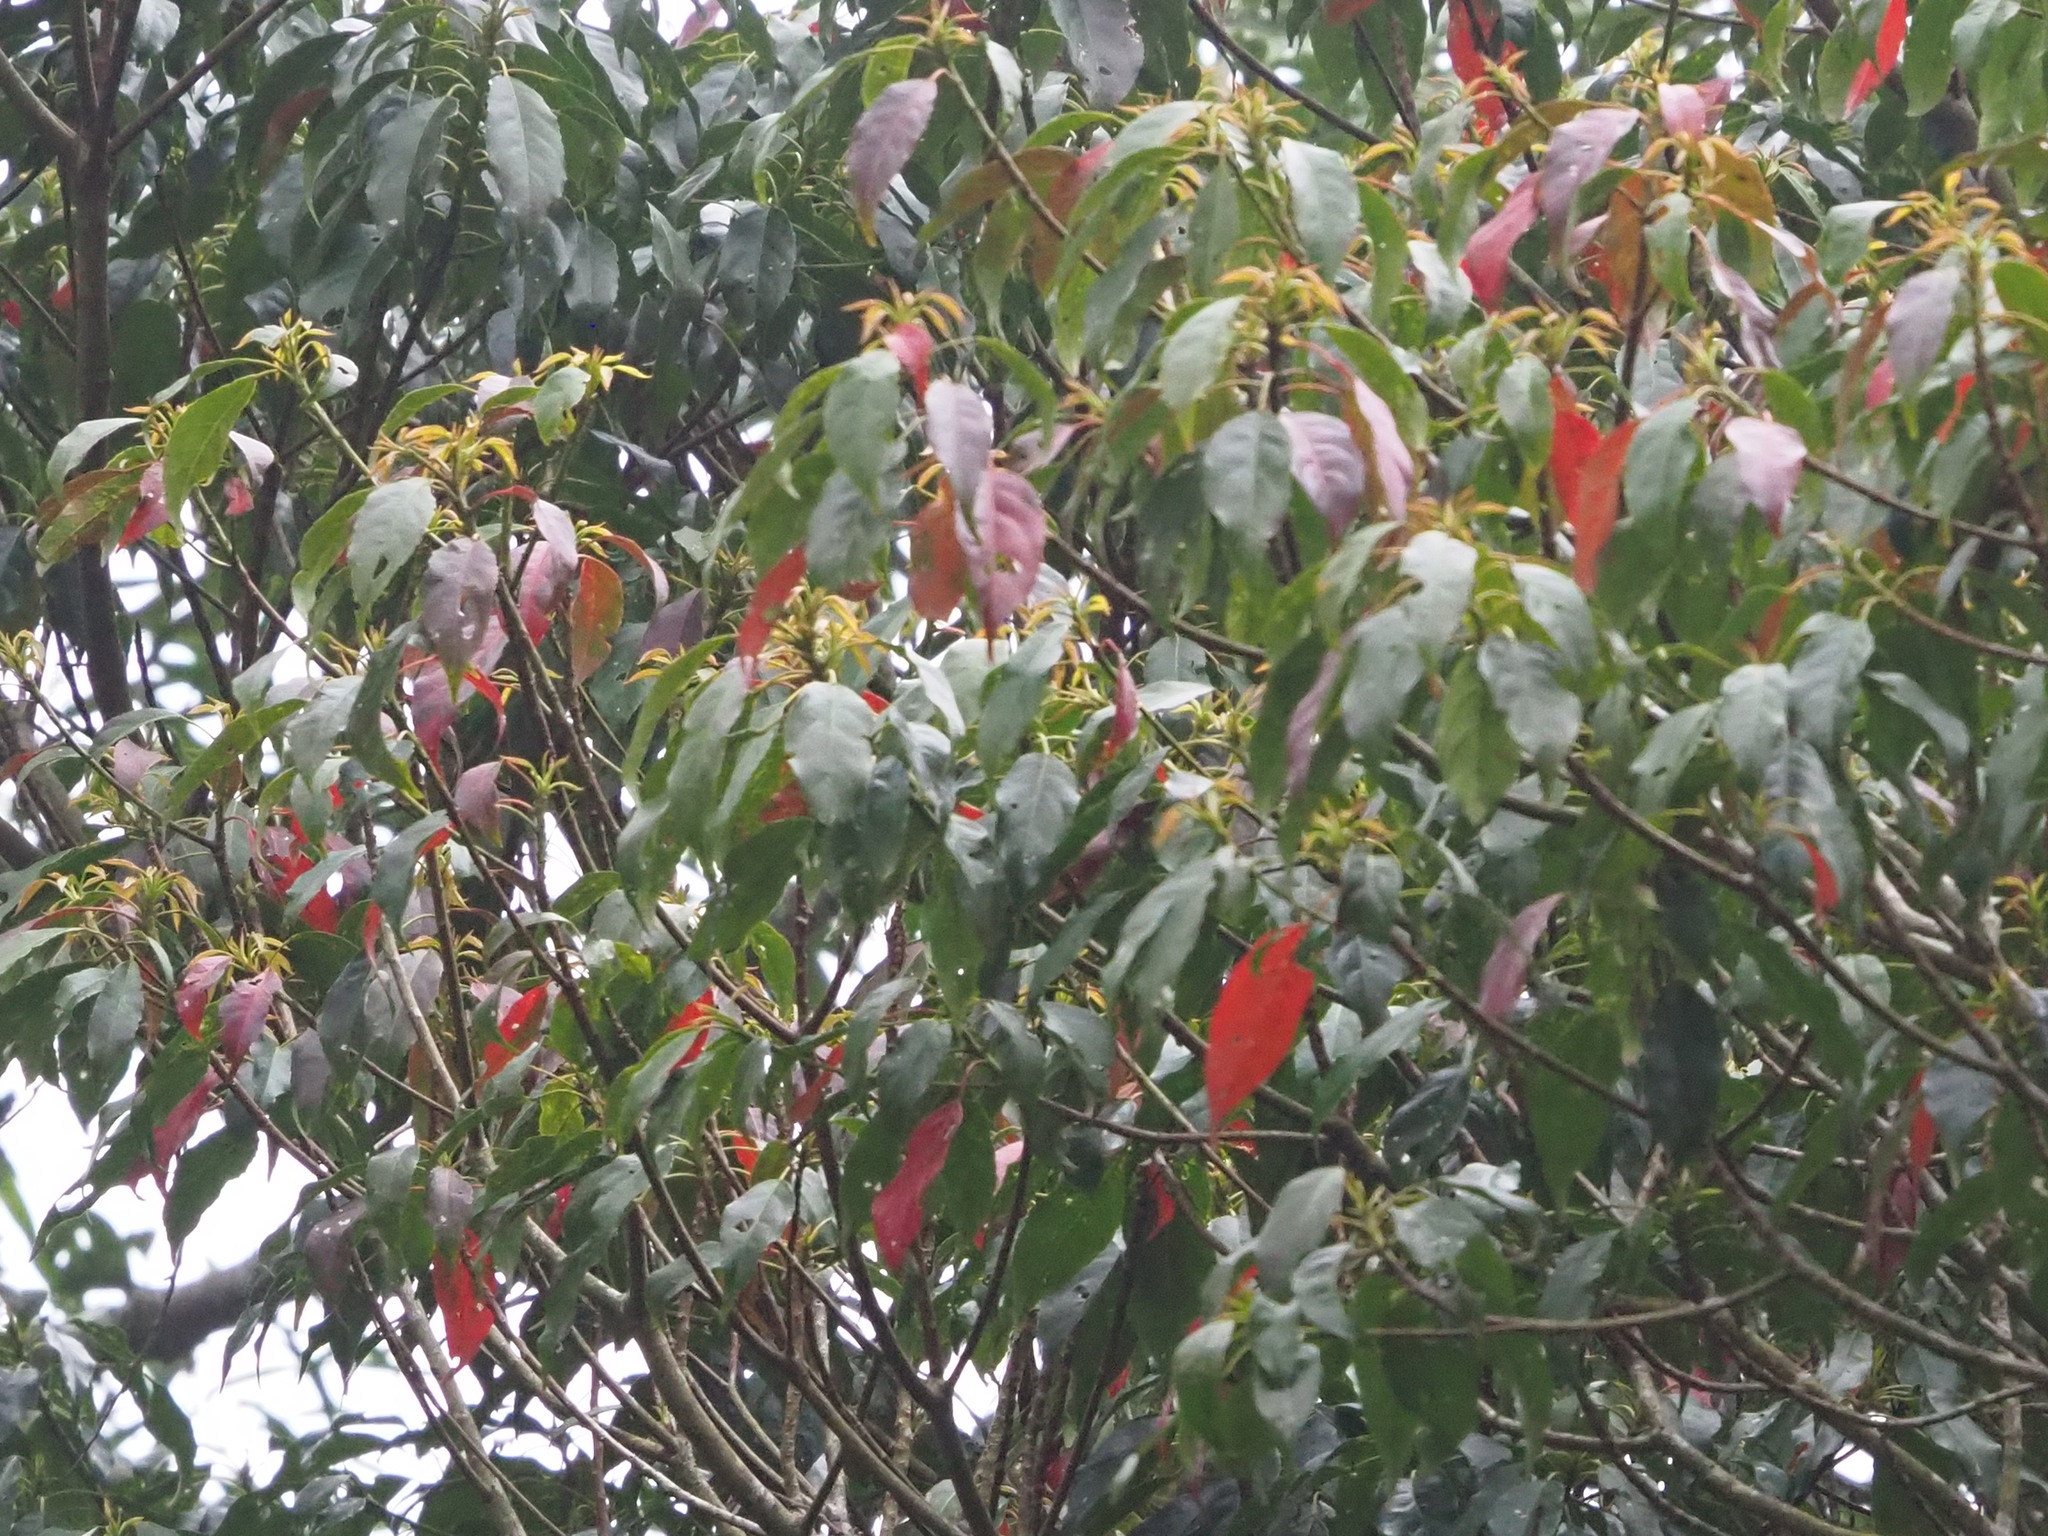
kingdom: Plantae
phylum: Tracheophyta
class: Magnoliopsida
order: Oxalidales
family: Elaeocarpaceae
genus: Elaeocarpus
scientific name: Elaeocarpus japonicus
